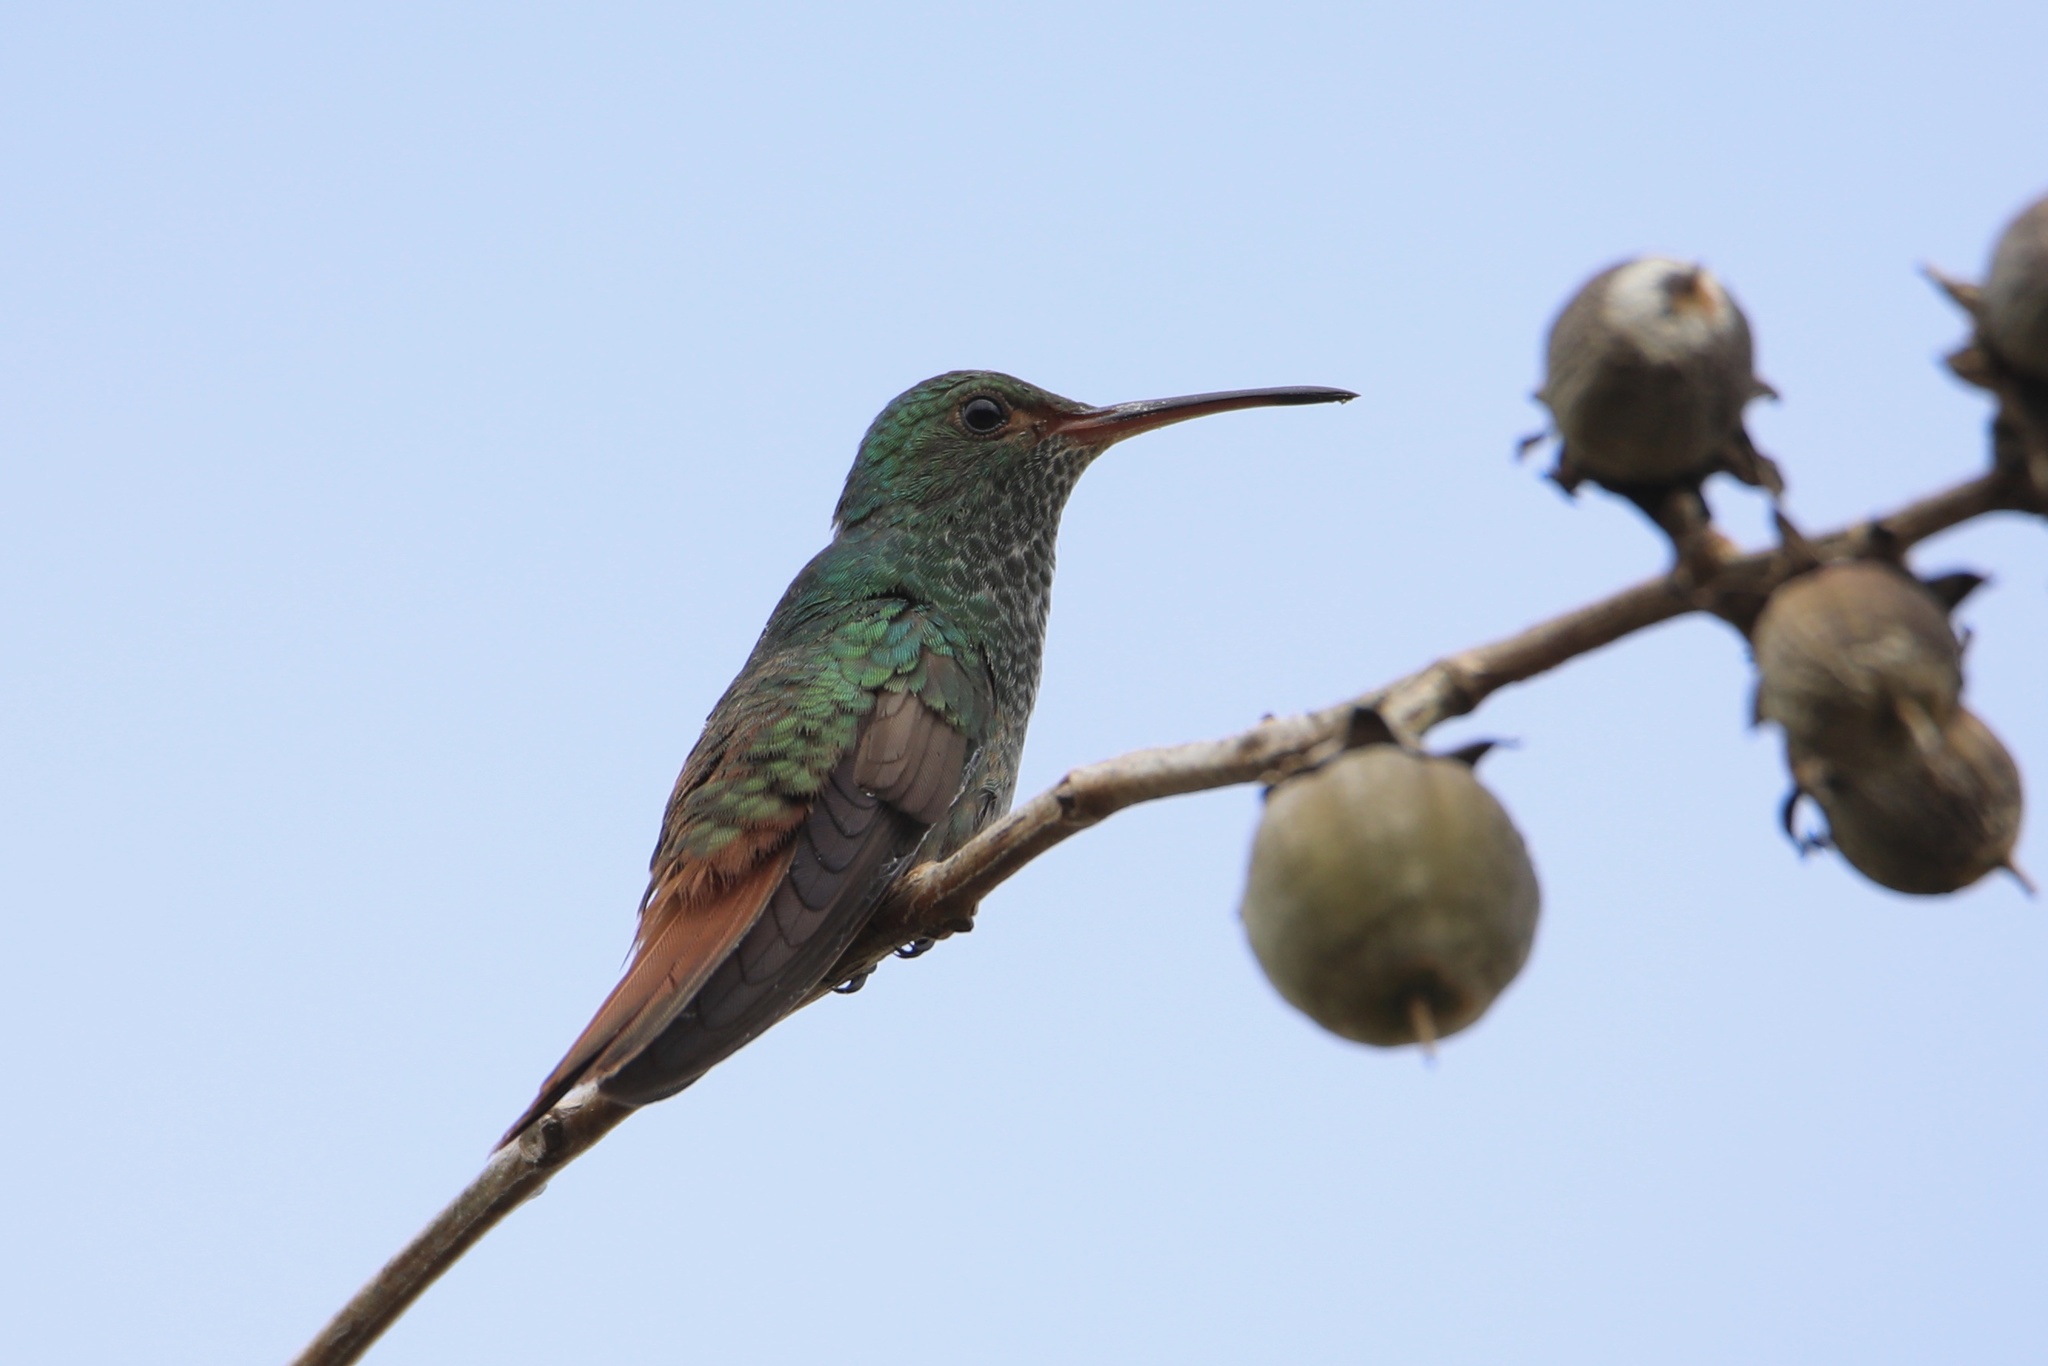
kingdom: Animalia
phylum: Chordata
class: Aves
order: Apodiformes
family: Trochilidae
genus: Amazilia
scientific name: Amazilia tzacatl
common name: Rufous-tailed hummingbird
